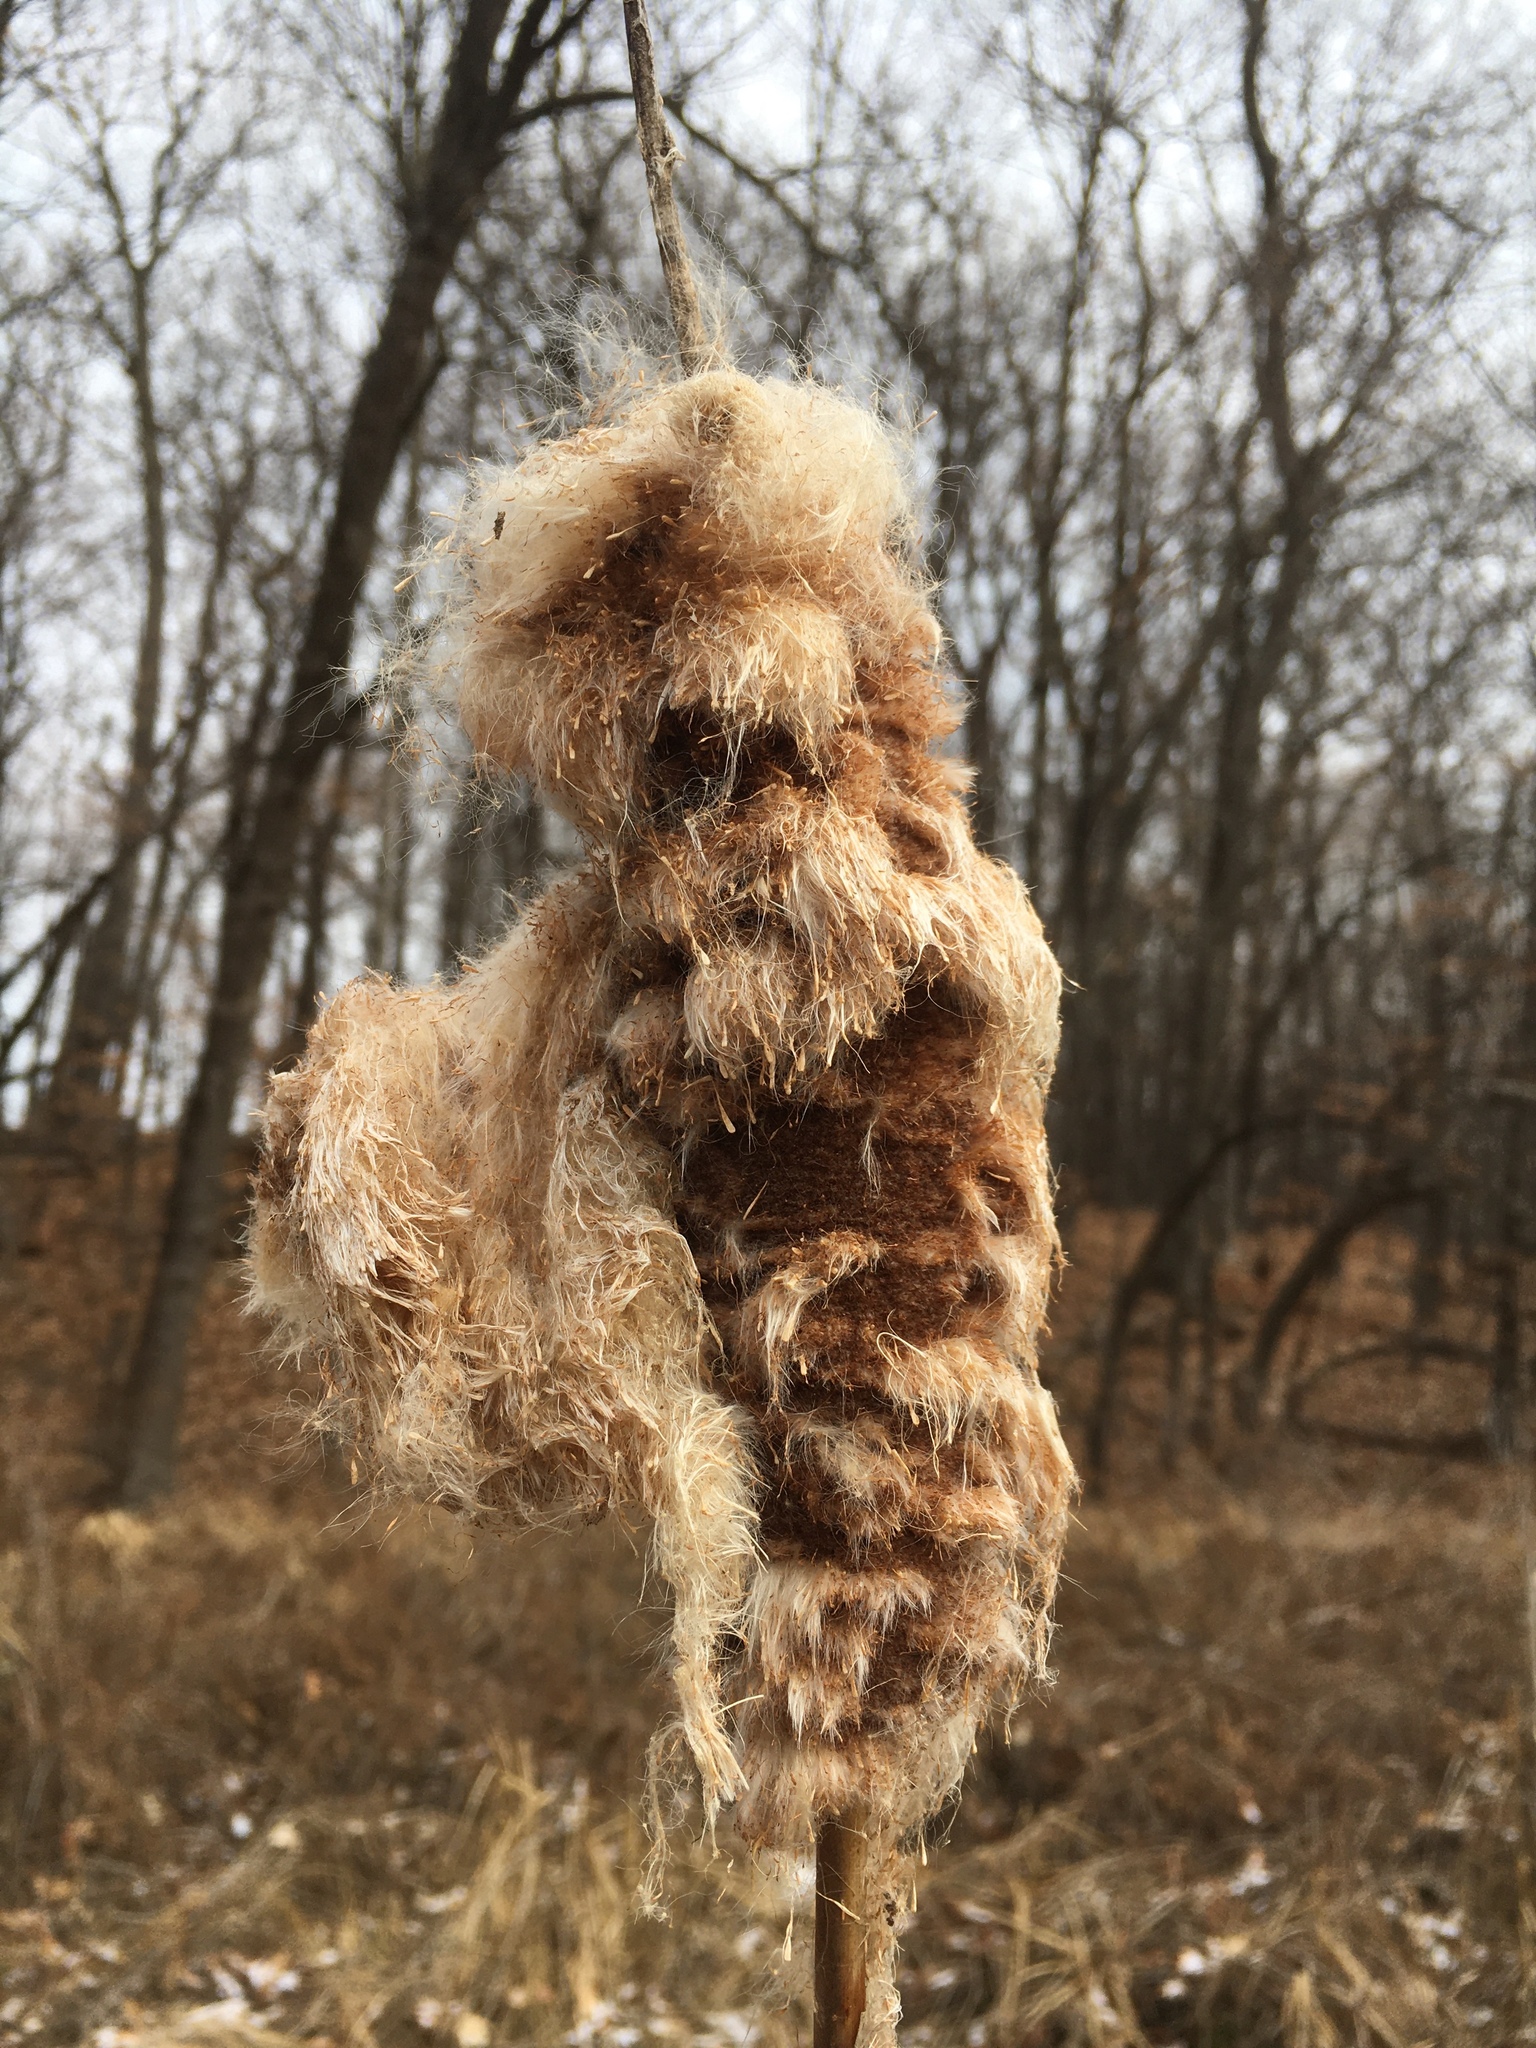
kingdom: Animalia
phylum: Arthropoda
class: Insecta
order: Lepidoptera
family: Cosmopterigidae
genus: Limnaecia
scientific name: Limnaecia phragmitella
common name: Bulrush cosmet
